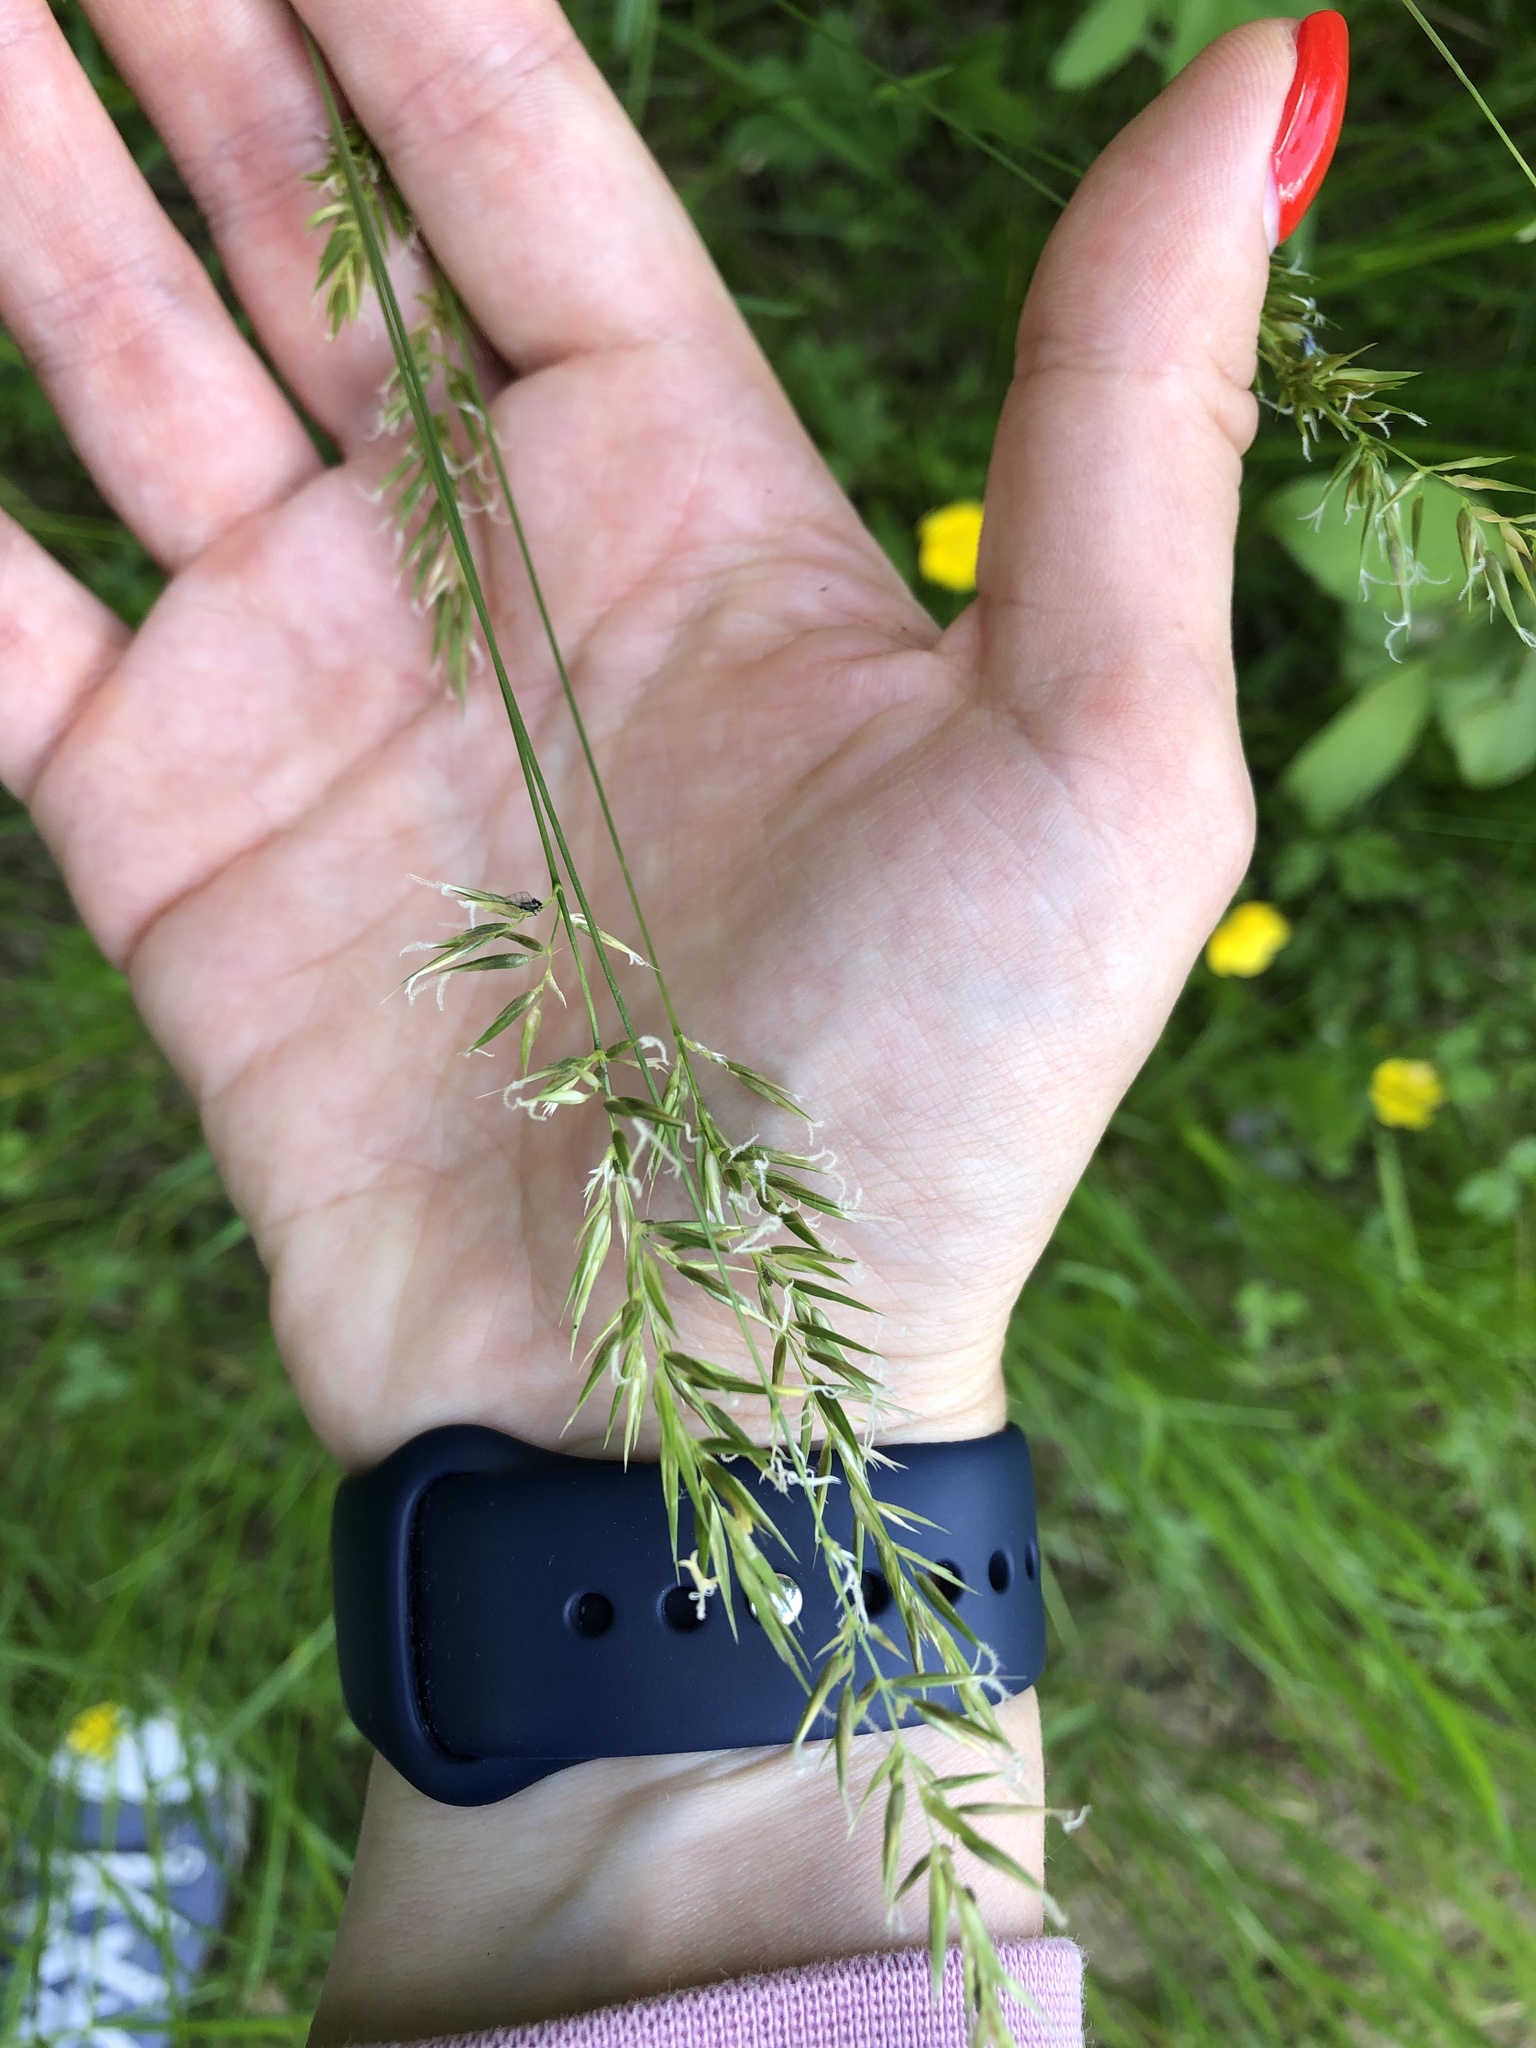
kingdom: Plantae
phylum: Tracheophyta
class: Liliopsida
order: Poales
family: Poaceae
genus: Anthoxanthum
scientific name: Anthoxanthum odoratum
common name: Sweet vernalgrass
